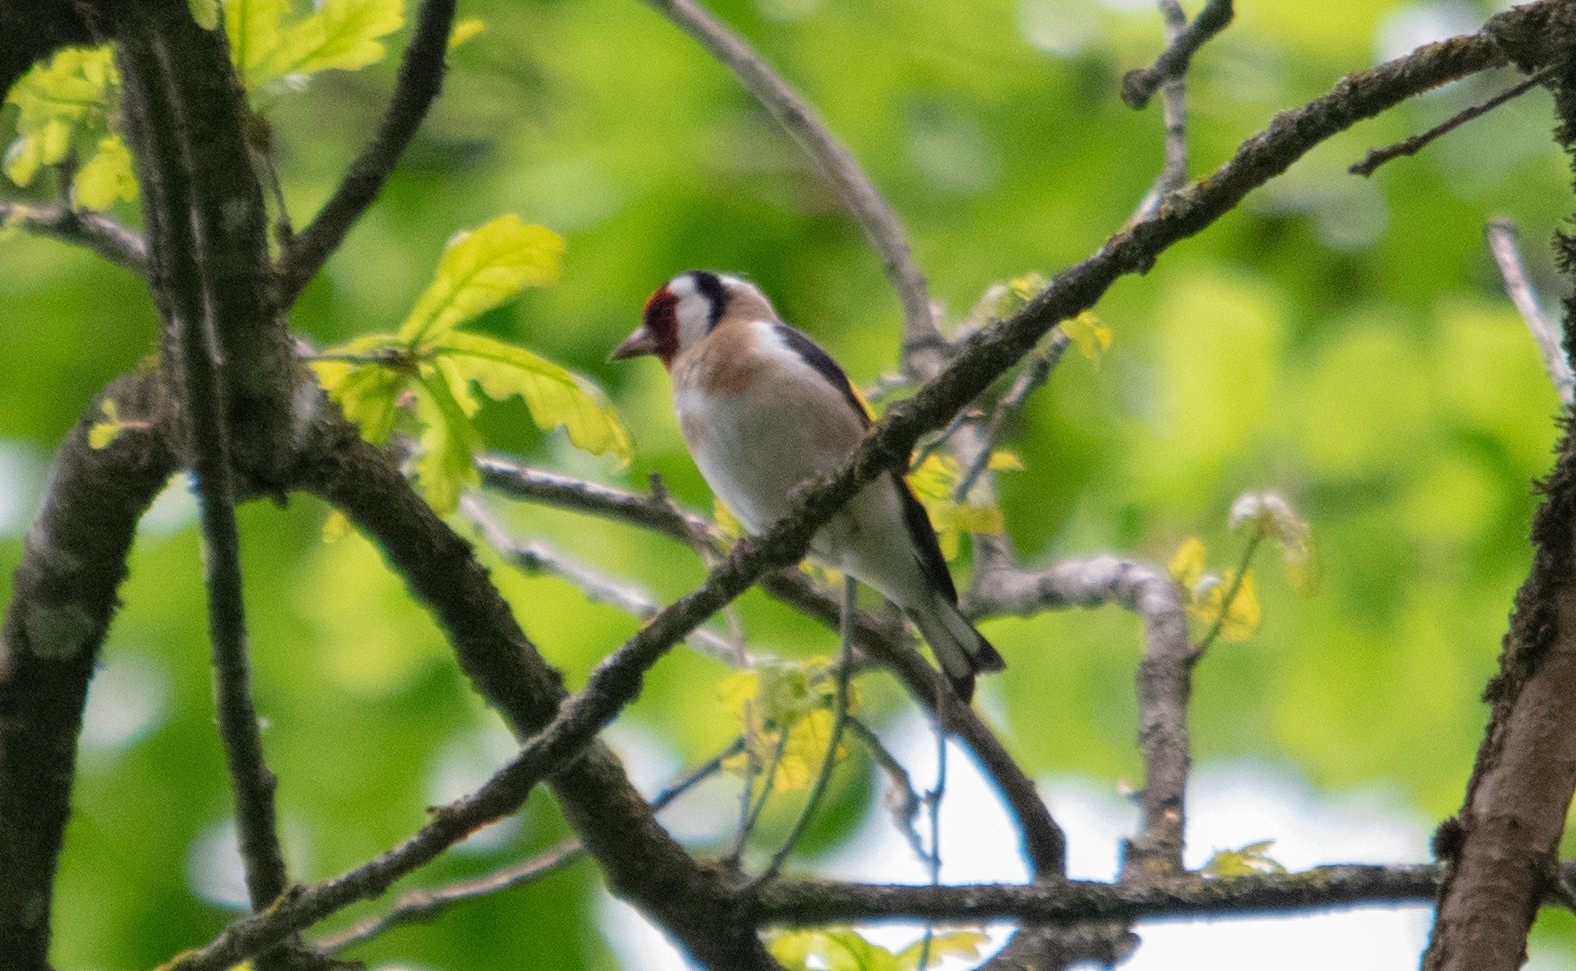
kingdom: Animalia
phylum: Chordata
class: Aves
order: Passeriformes
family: Fringillidae
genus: Carduelis
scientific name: Carduelis carduelis
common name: European goldfinch
